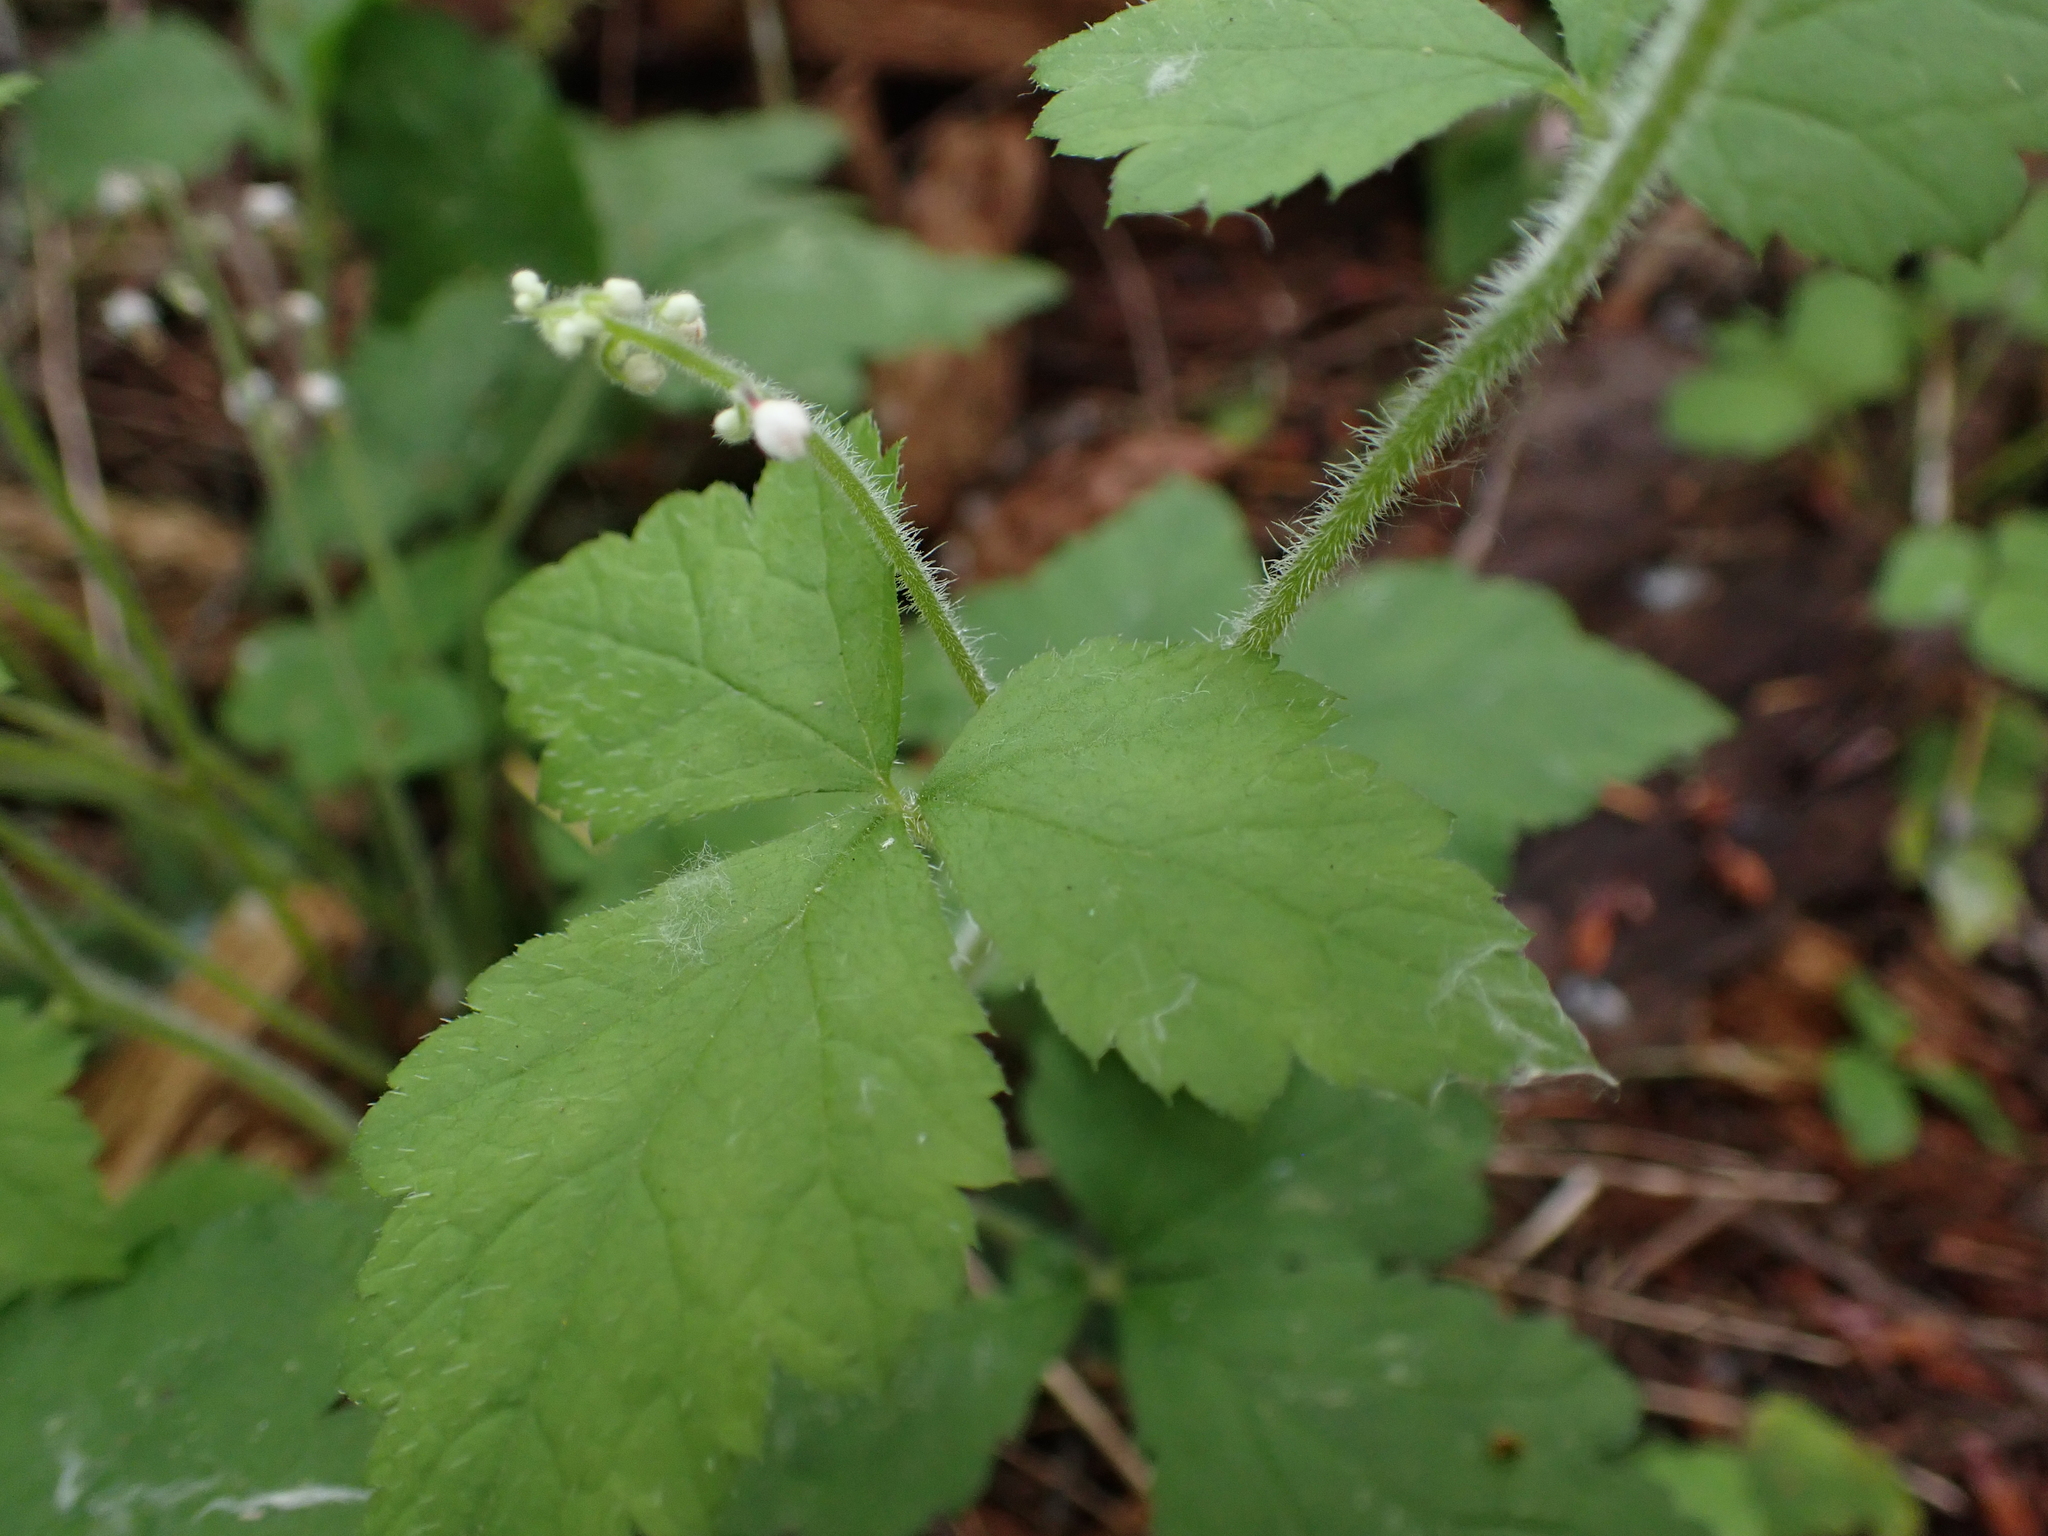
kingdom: Plantae
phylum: Tracheophyta
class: Magnoliopsida
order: Saxifragales
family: Saxifragaceae
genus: Tiarella
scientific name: Tiarella trifoliata
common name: Sugar-scoop
